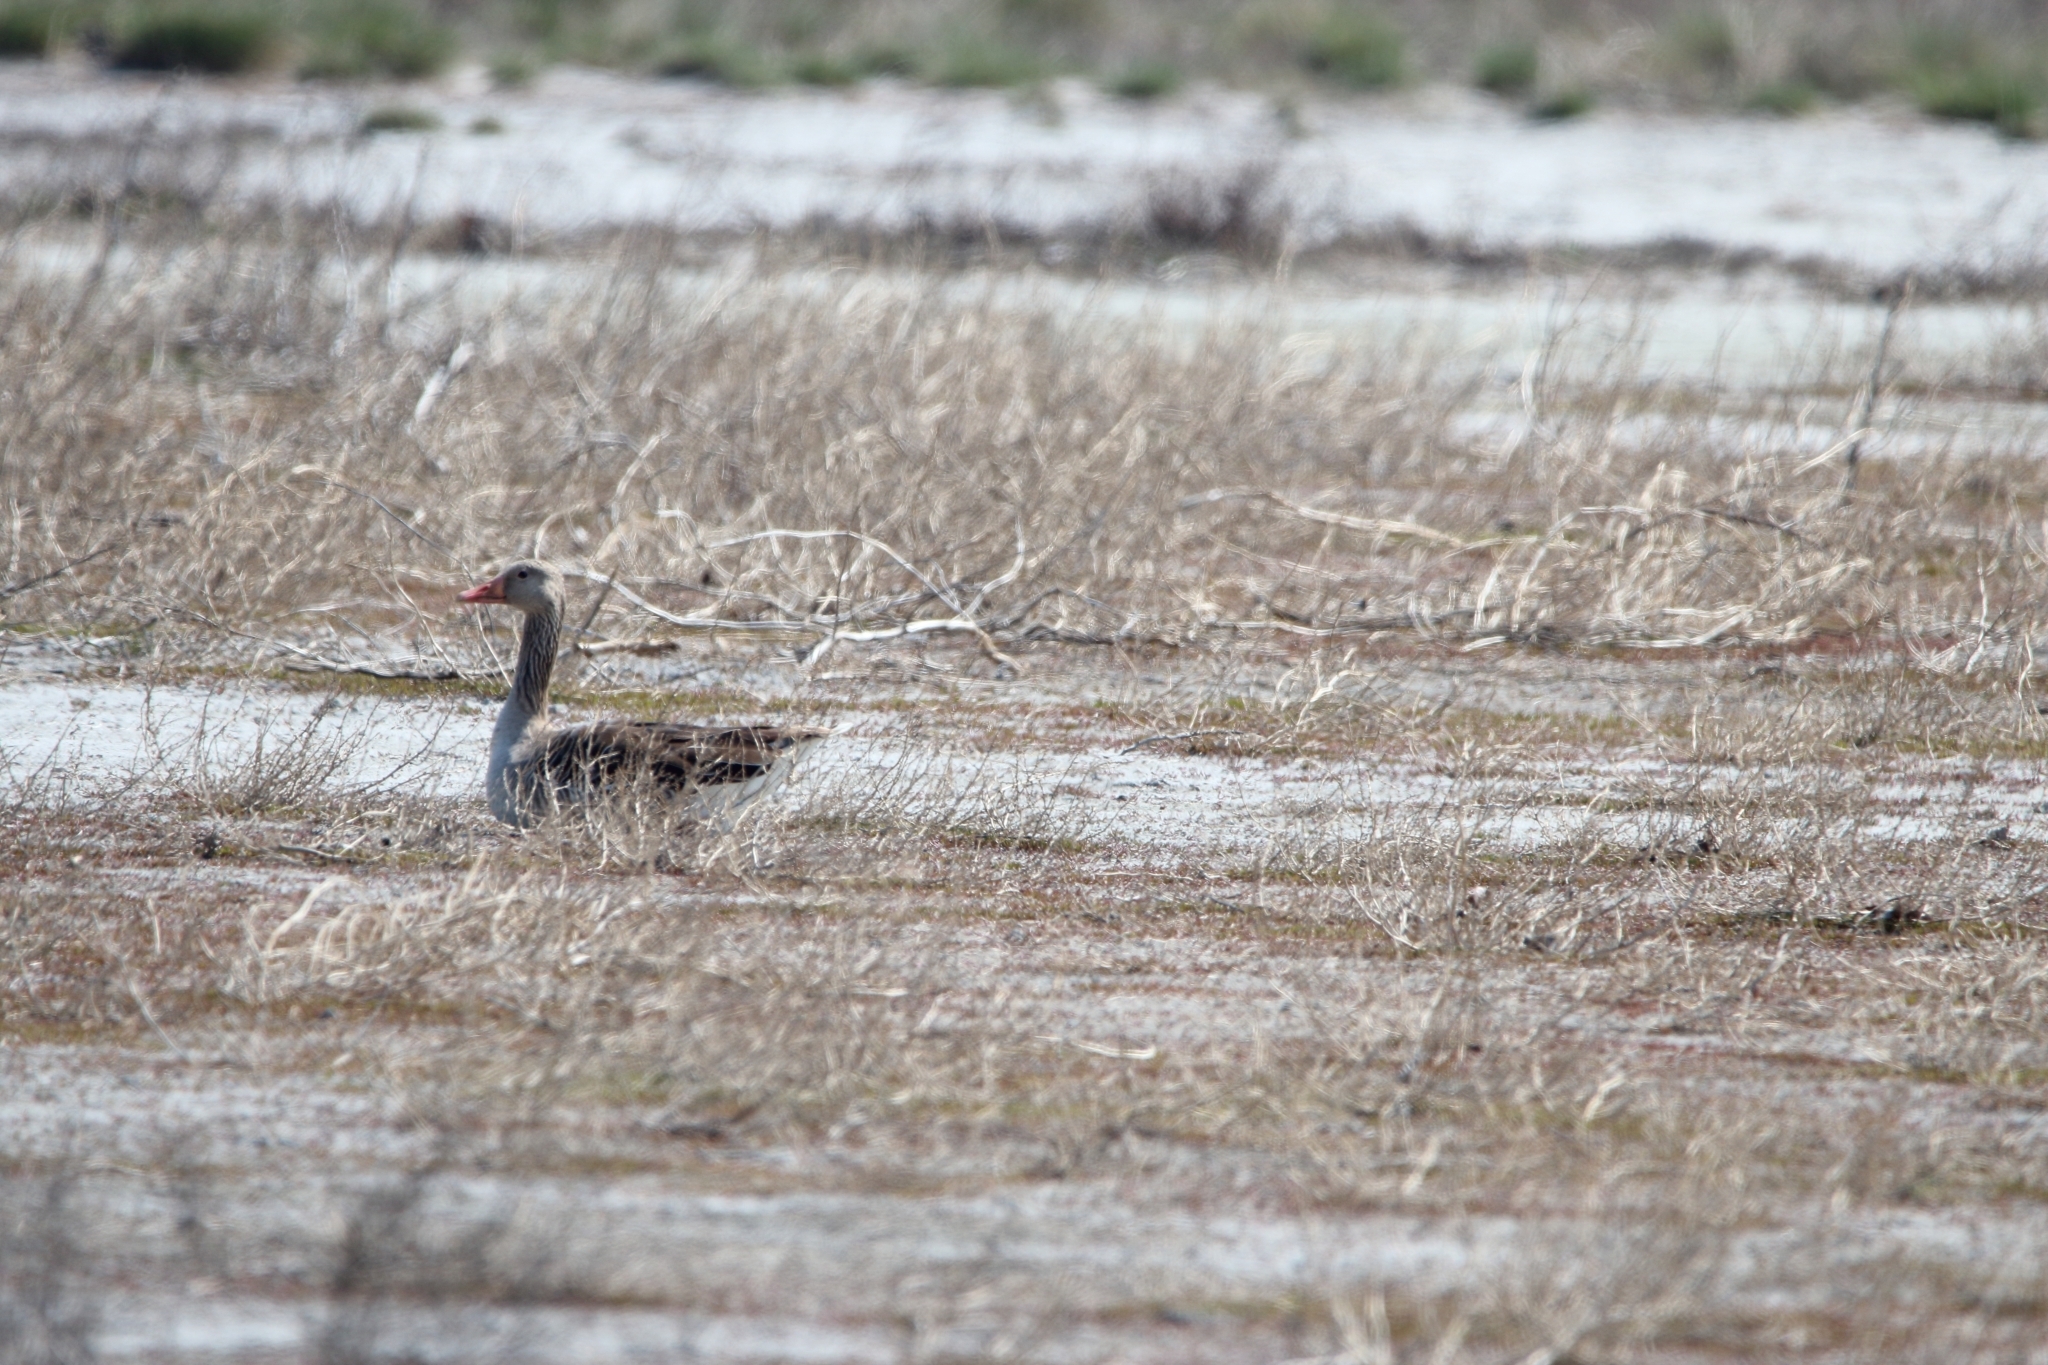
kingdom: Animalia
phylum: Chordata
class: Aves
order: Anseriformes
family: Anatidae
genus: Anser
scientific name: Anser anser
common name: Greylag goose
